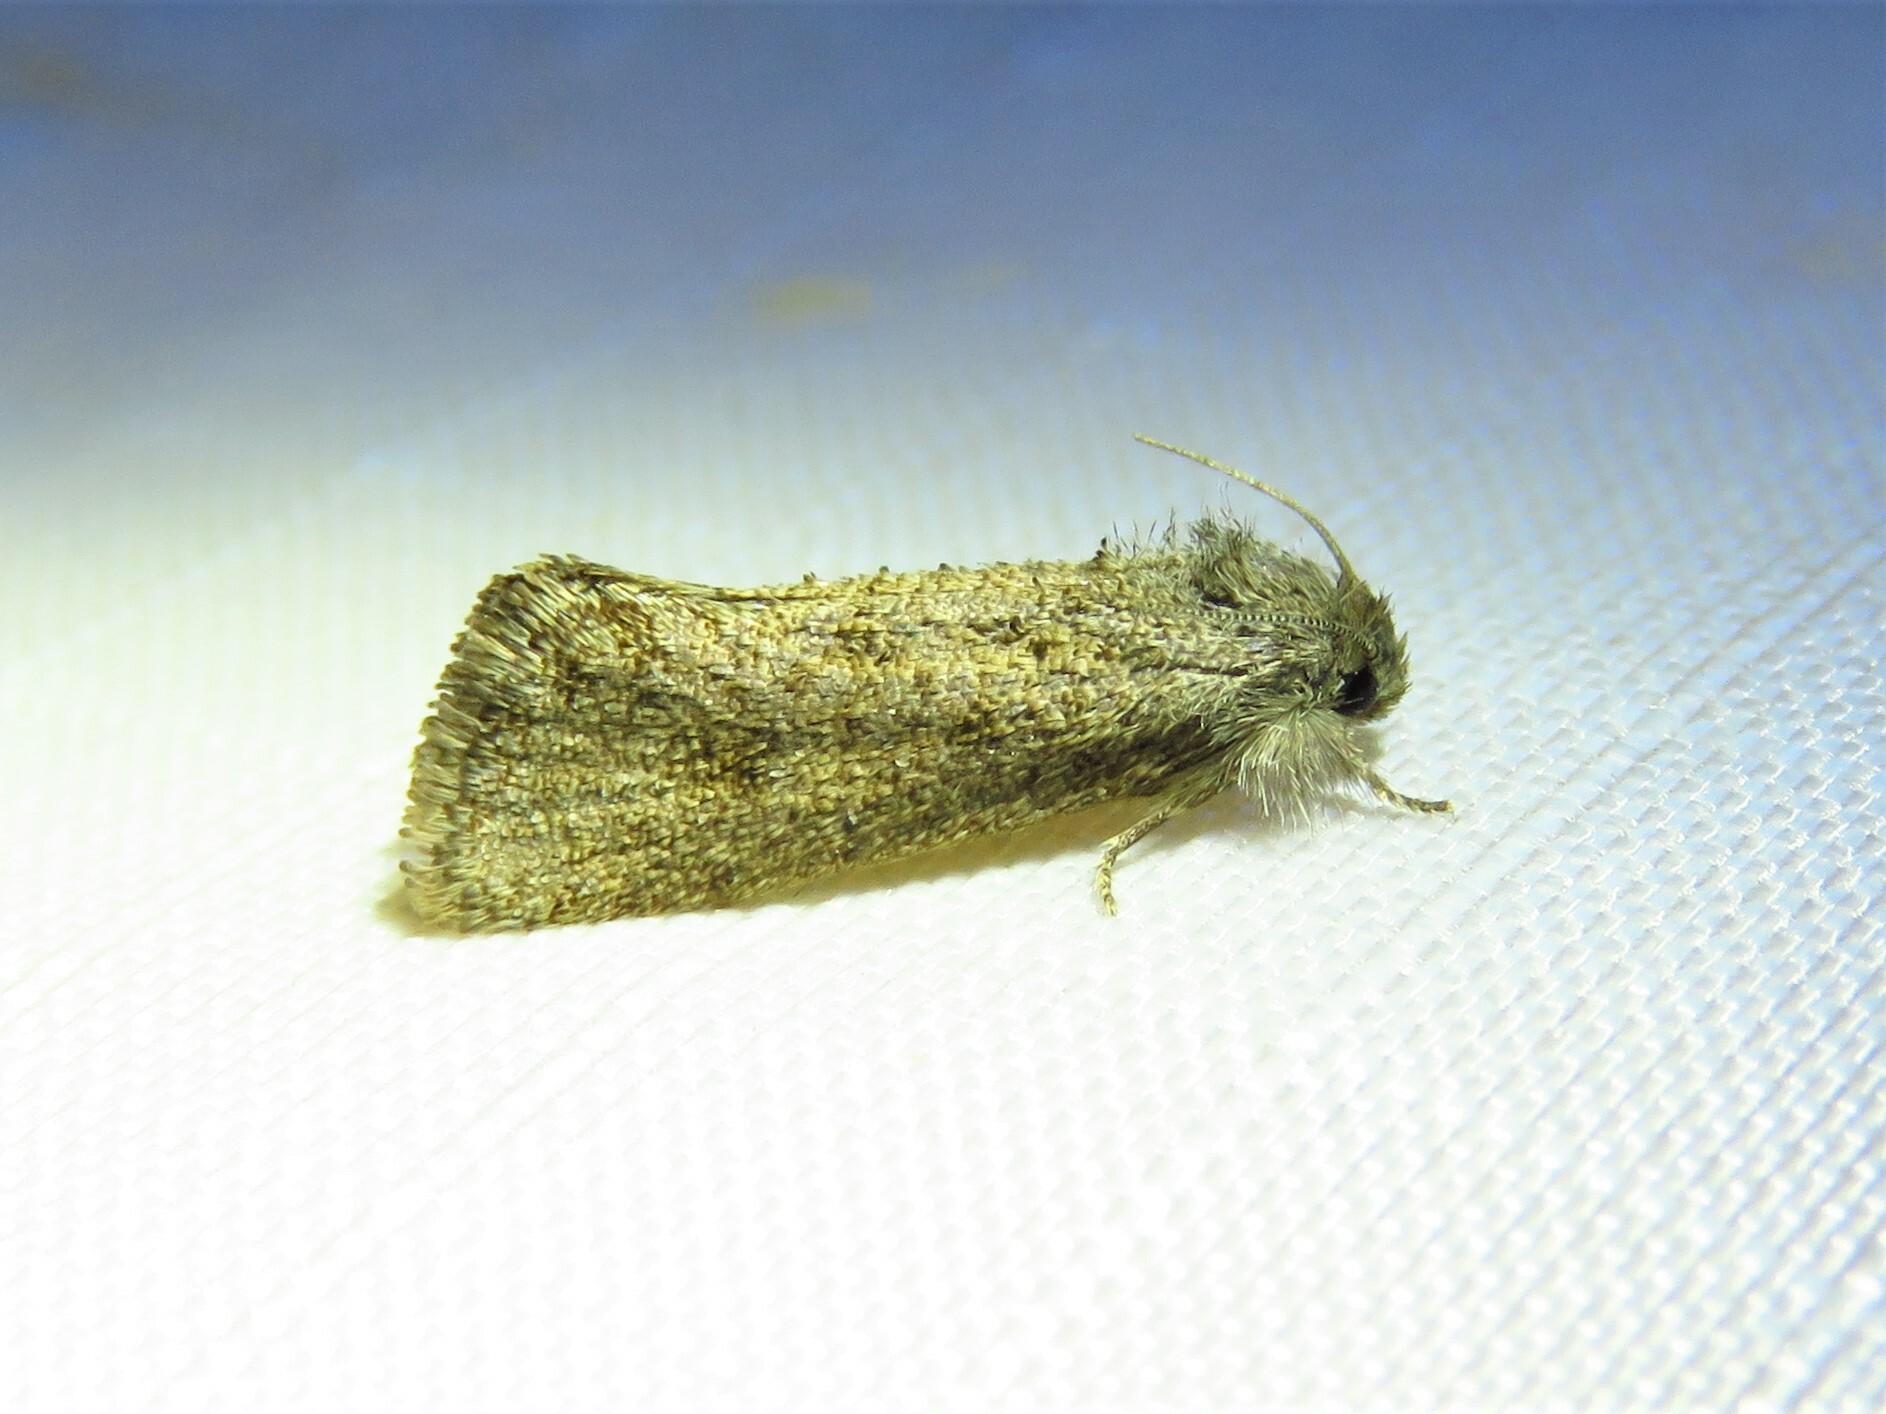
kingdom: Animalia
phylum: Arthropoda
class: Insecta
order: Lepidoptera
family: Tineidae
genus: Acrolophus
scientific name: Acrolophus heppneri
